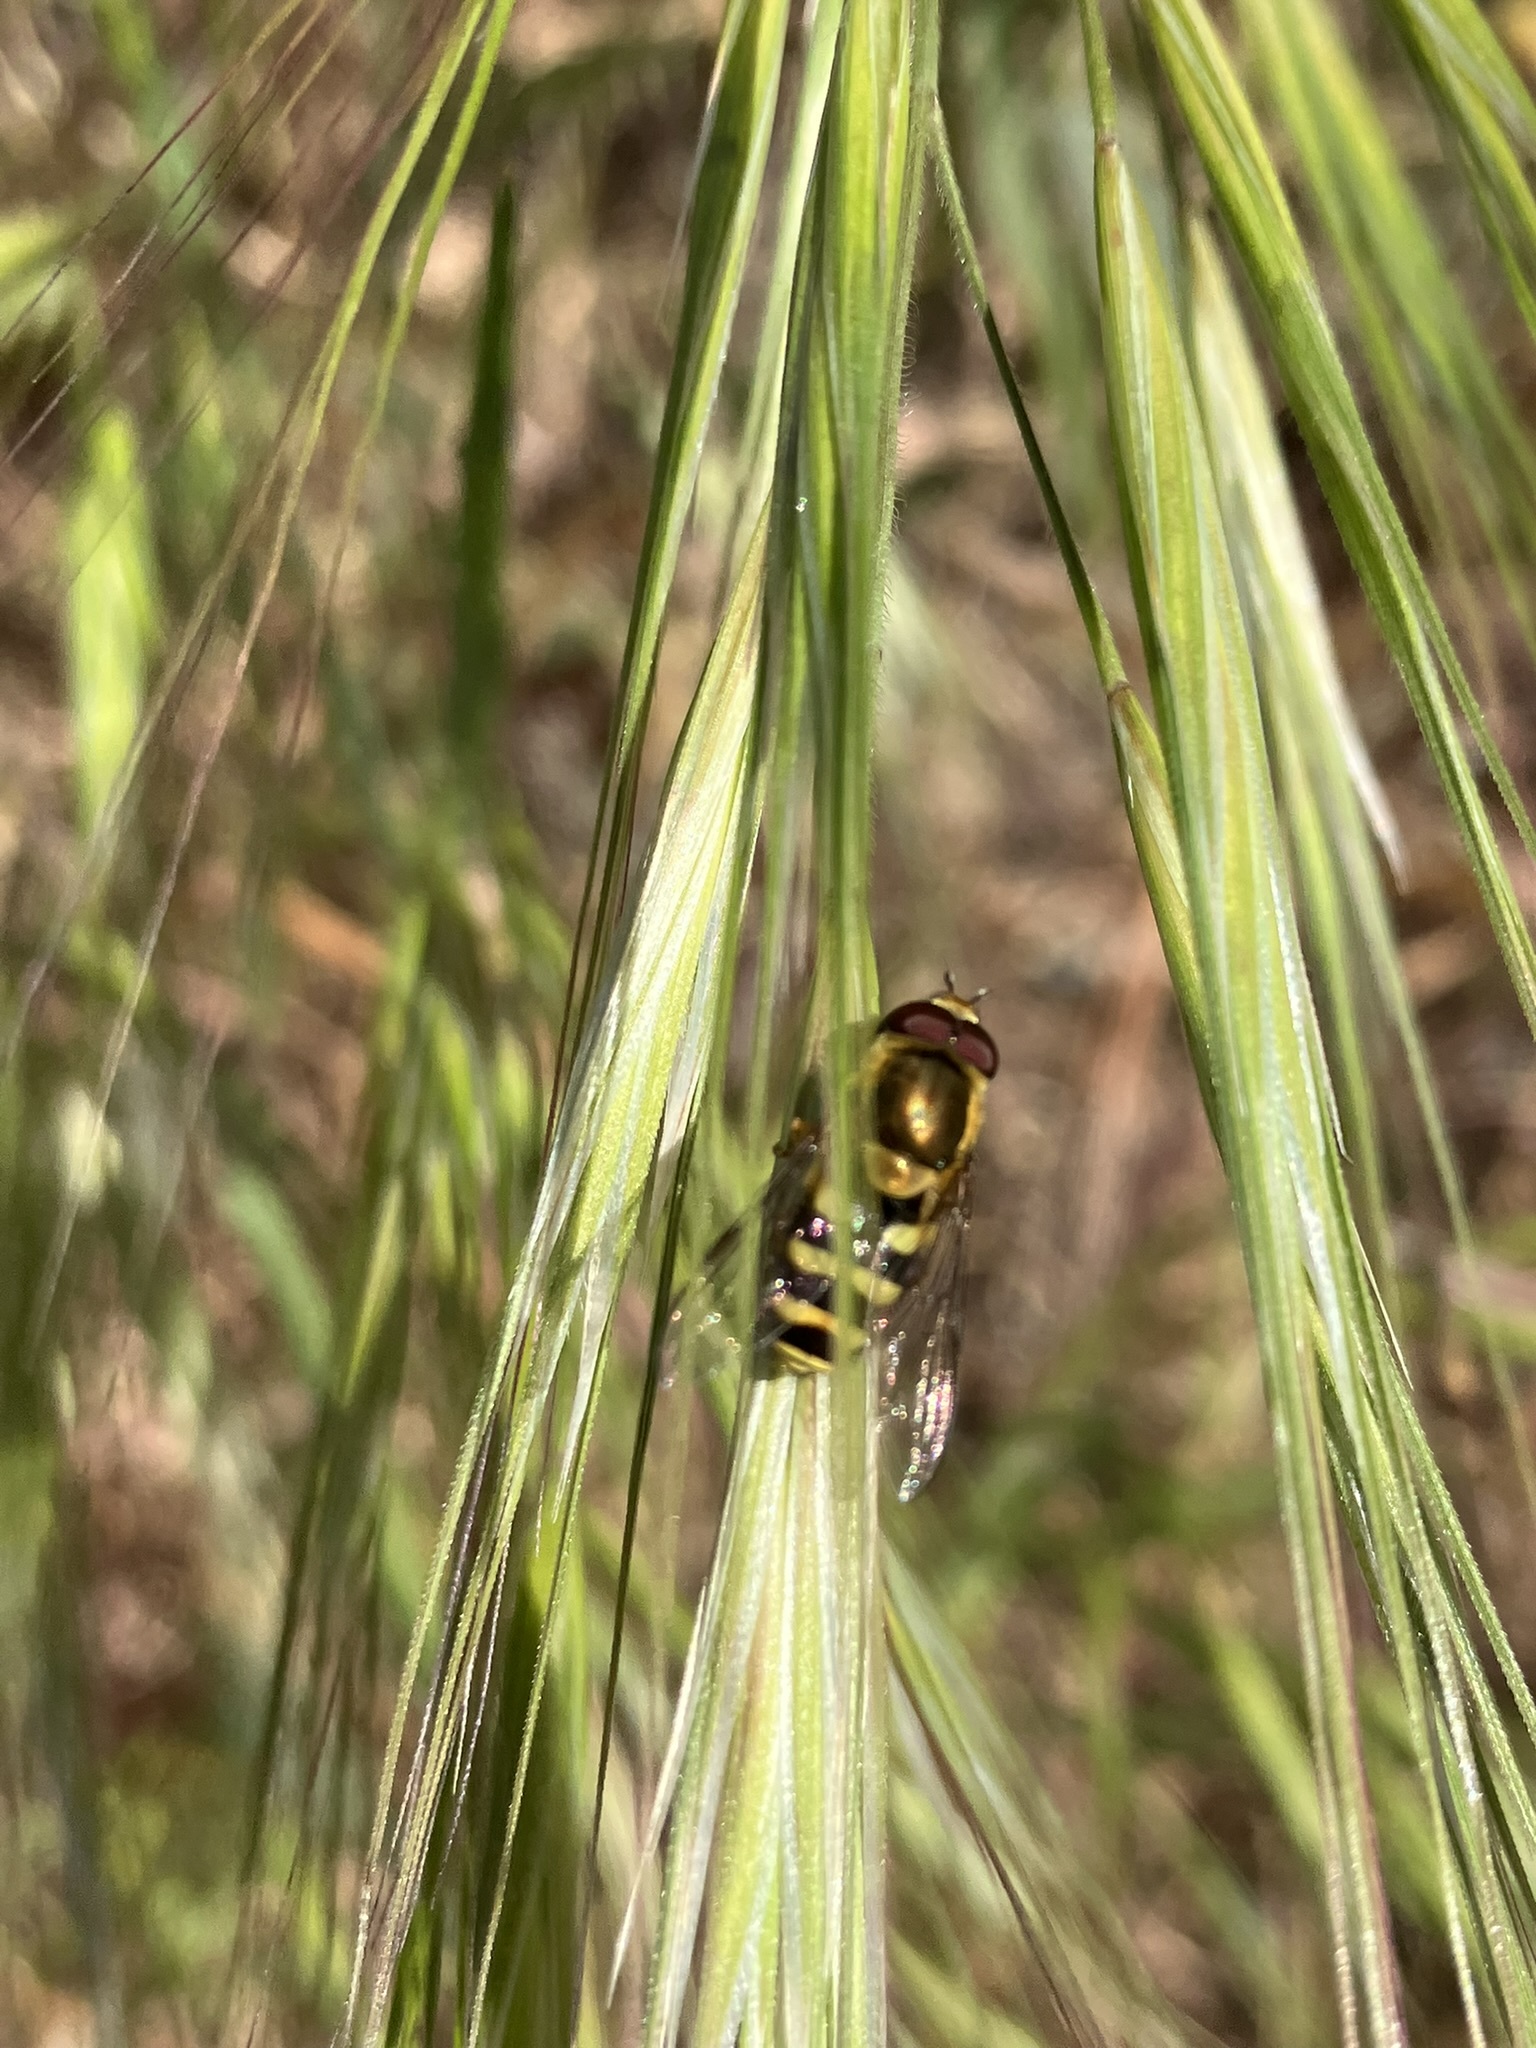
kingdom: Animalia
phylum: Arthropoda
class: Insecta
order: Diptera
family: Syrphidae
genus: Syrphus
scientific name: Syrphus opinator
